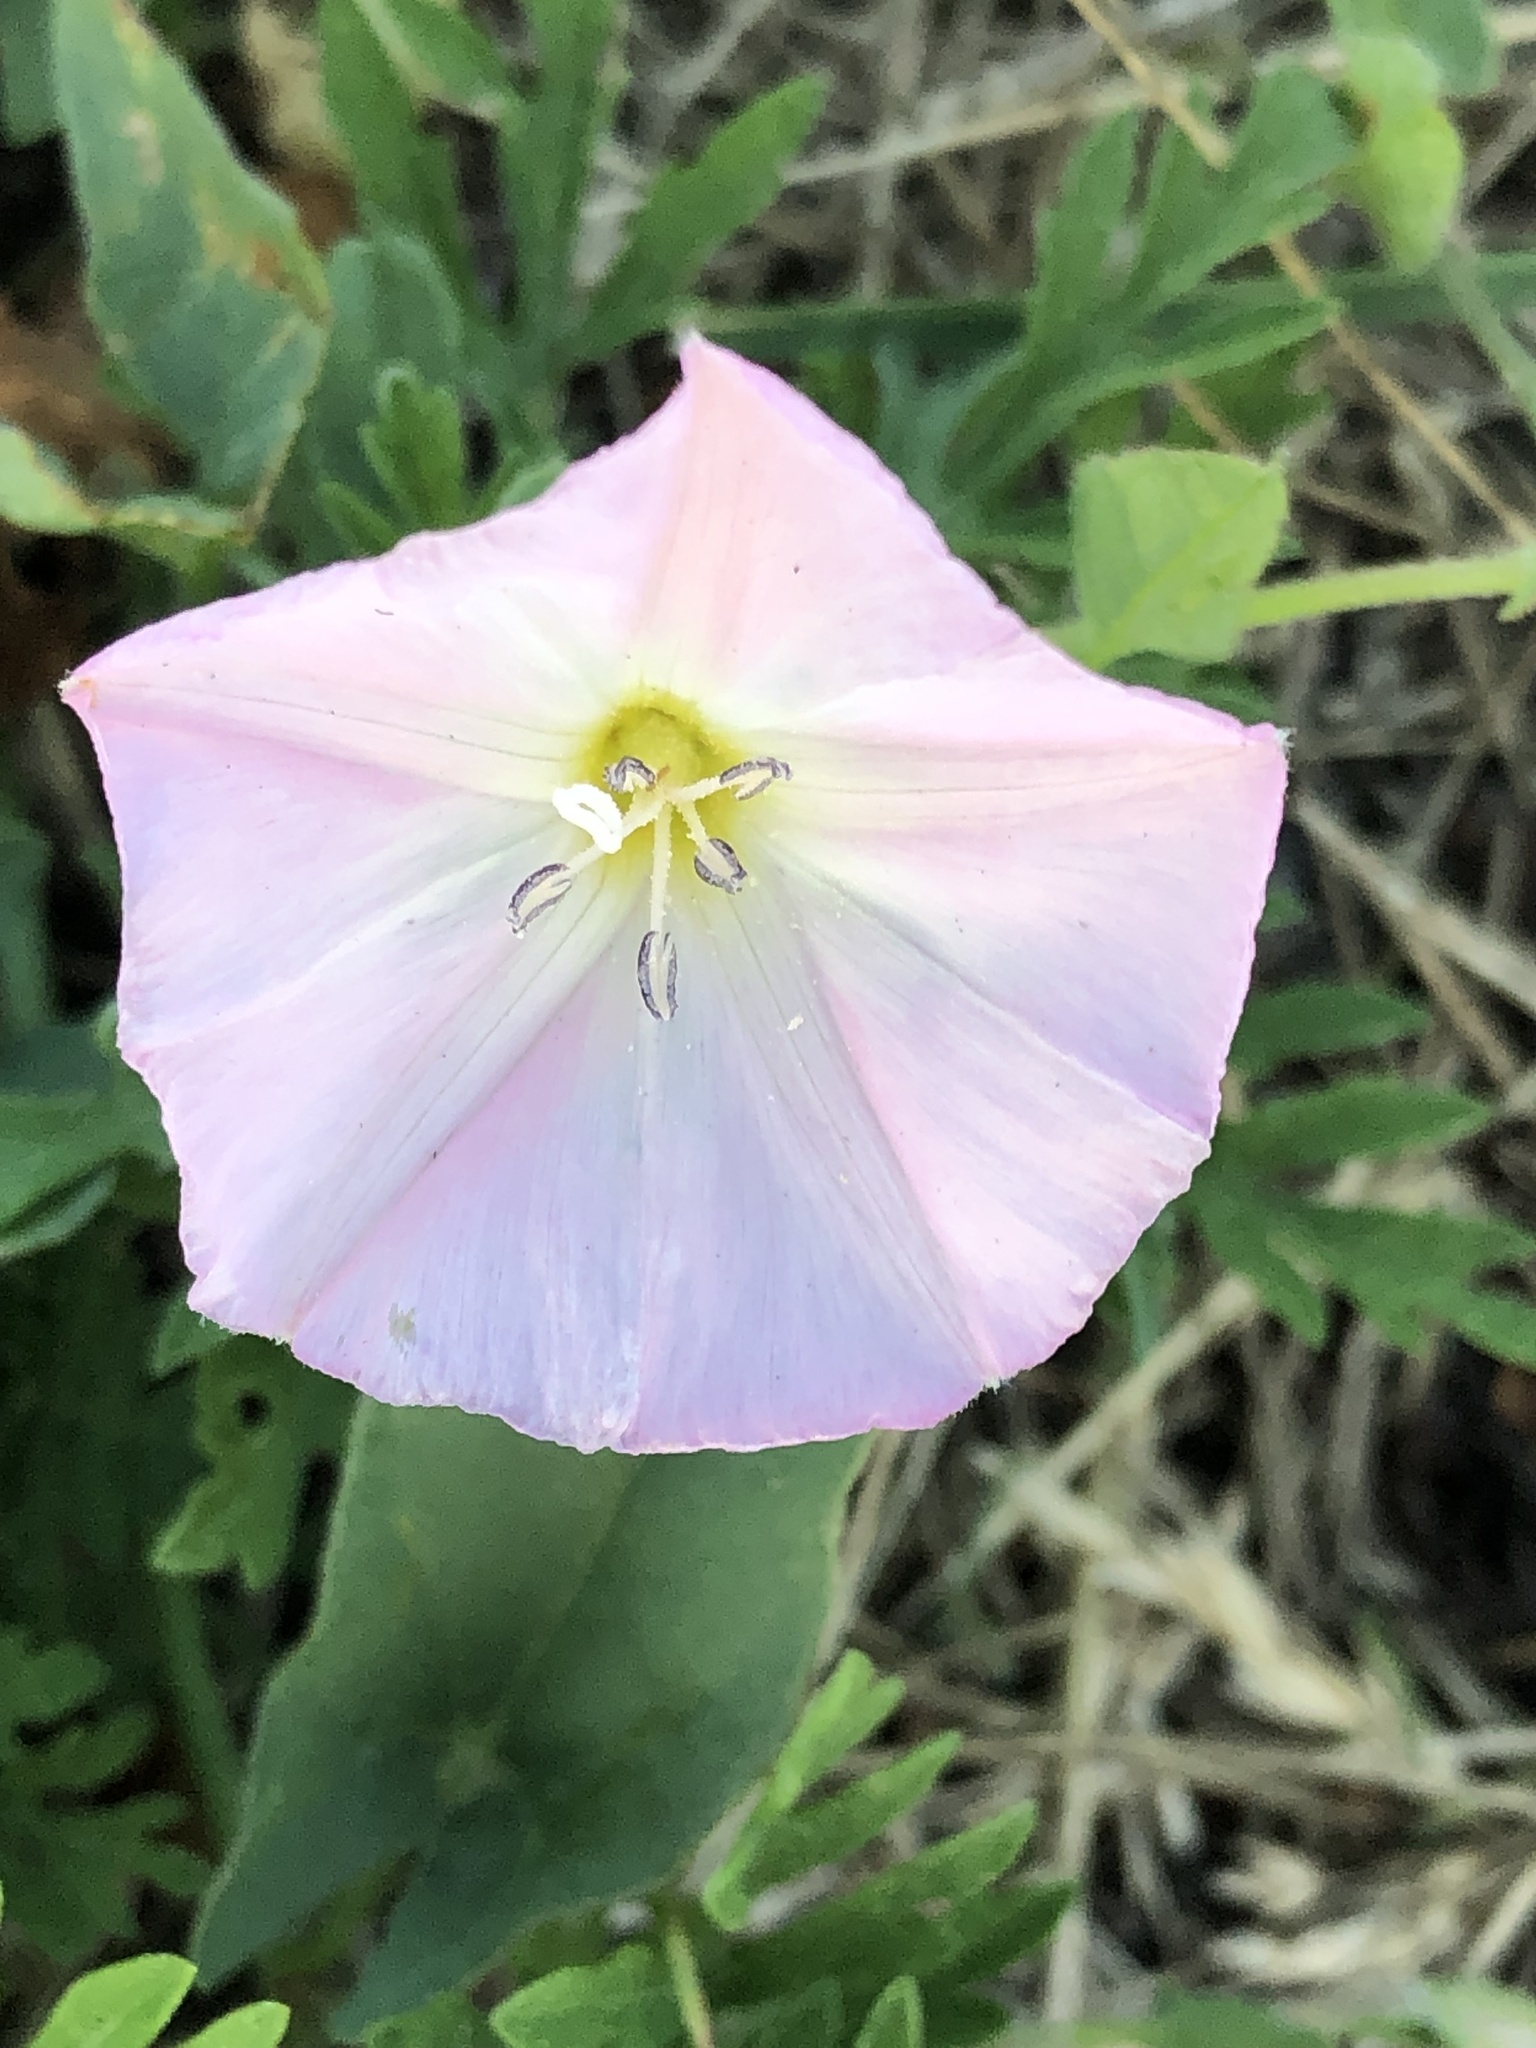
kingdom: Plantae
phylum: Tracheophyta
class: Magnoliopsida
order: Solanales
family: Convolvulaceae
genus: Convolvulus
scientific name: Convolvulus arvensis
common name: Field bindweed
